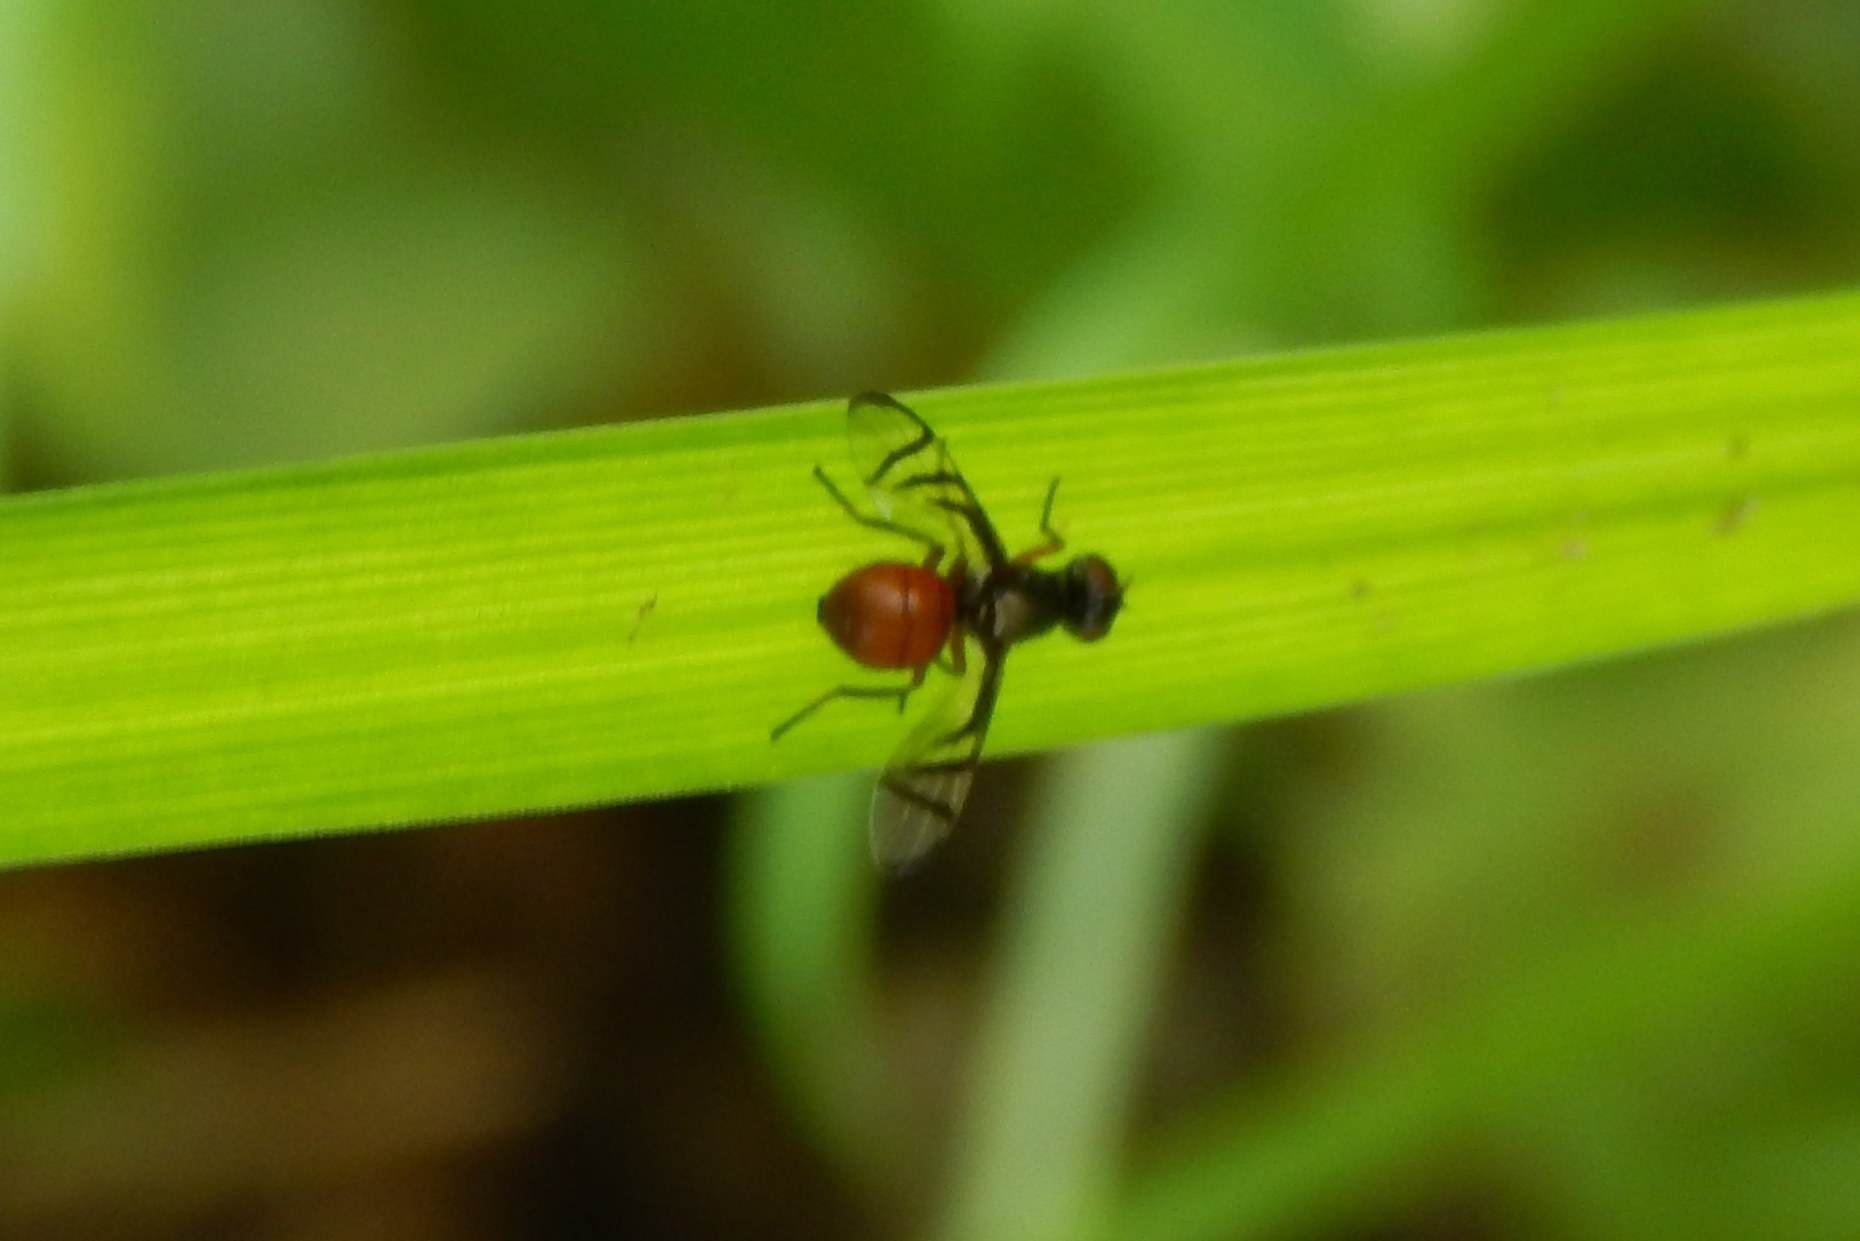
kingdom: Animalia
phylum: Arthropoda
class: Insecta
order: Diptera
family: Platystomatidae
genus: Rivellia
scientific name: Rivellia
